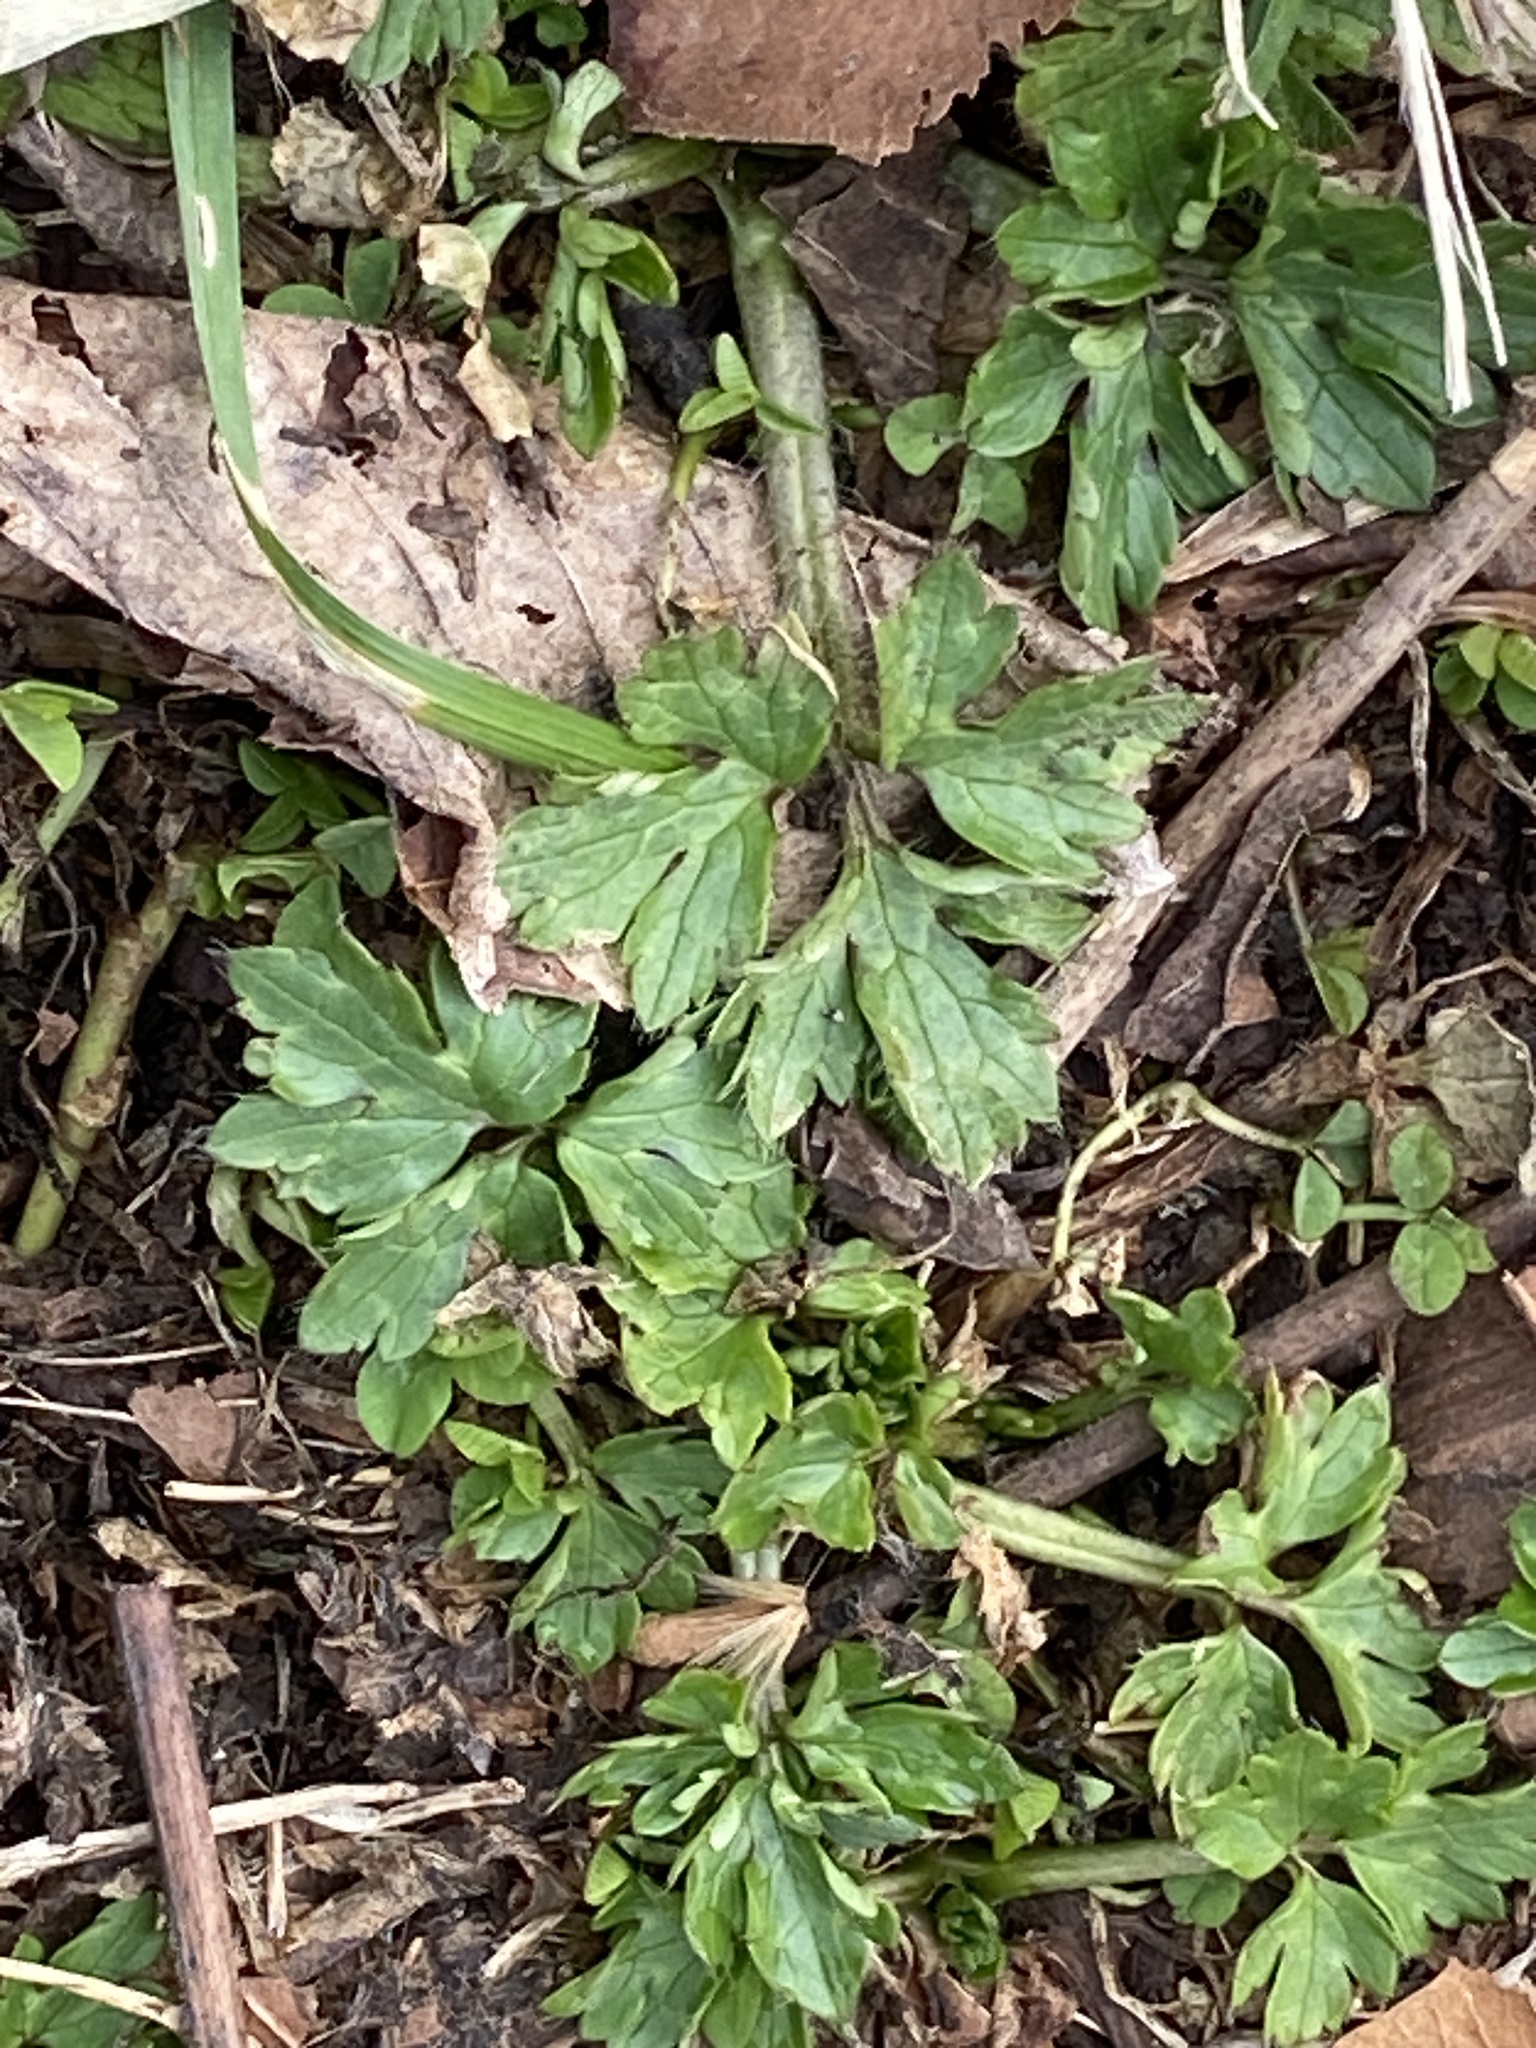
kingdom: Plantae
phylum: Tracheophyta
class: Magnoliopsida
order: Ranunculales
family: Ranunculaceae
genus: Ranunculus
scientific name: Ranunculus repens
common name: Creeping buttercup
